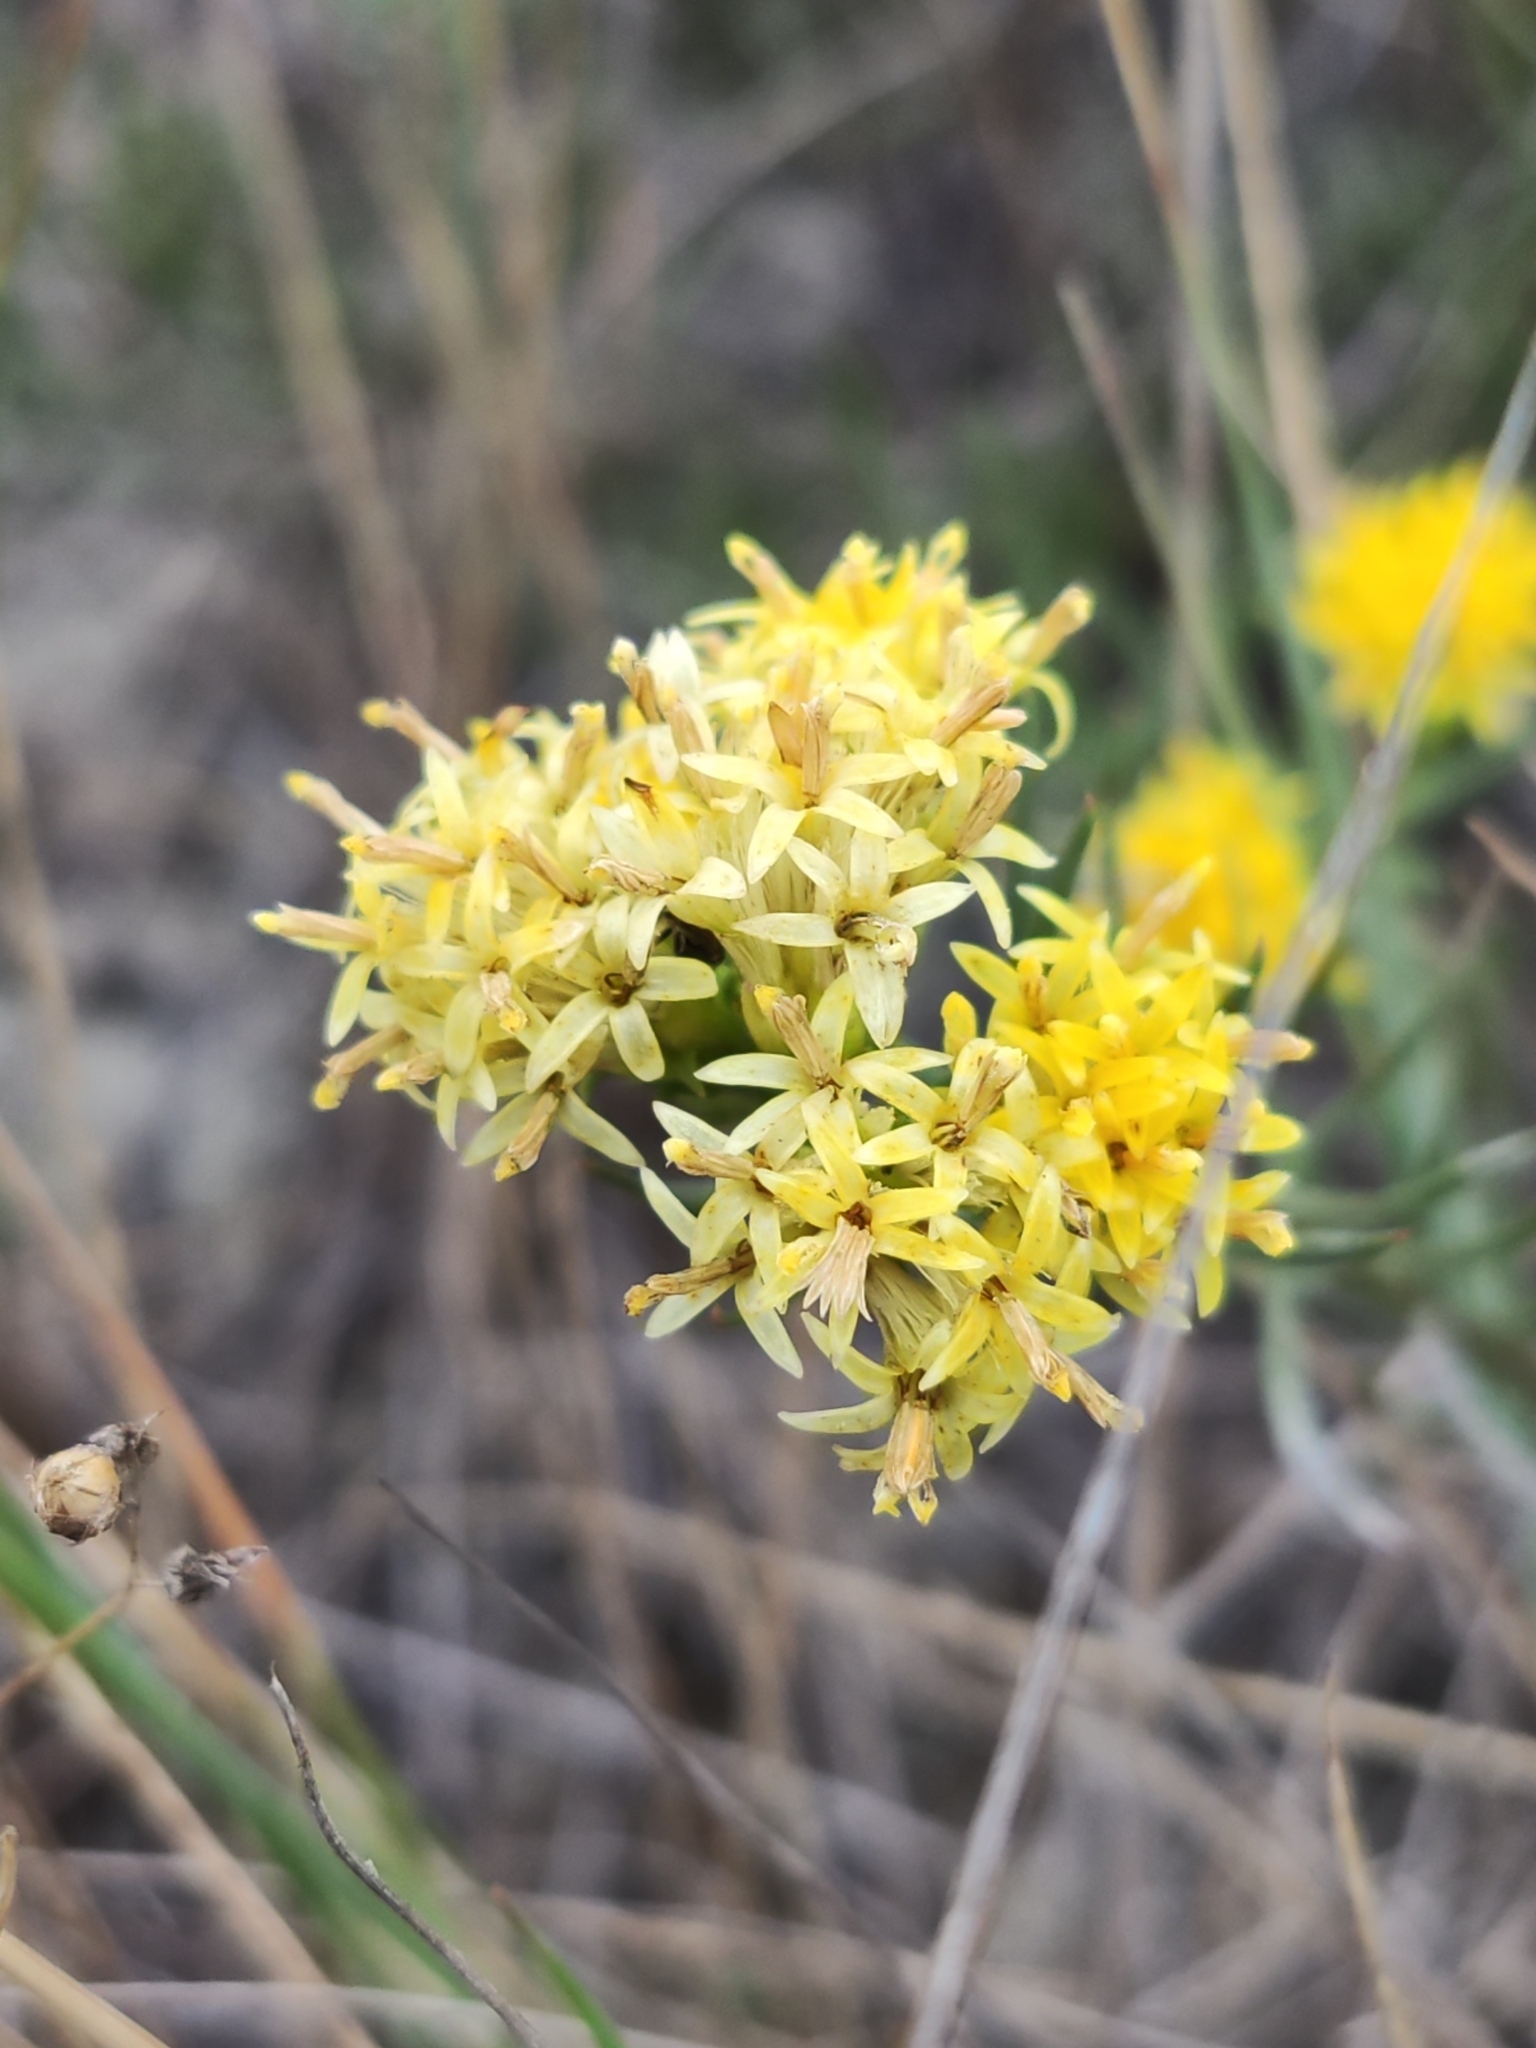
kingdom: Plantae
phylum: Tracheophyta
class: Magnoliopsida
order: Asterales
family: Asteraceae
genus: Galatella
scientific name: Galatella linosyris
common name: Goldilocks aster
